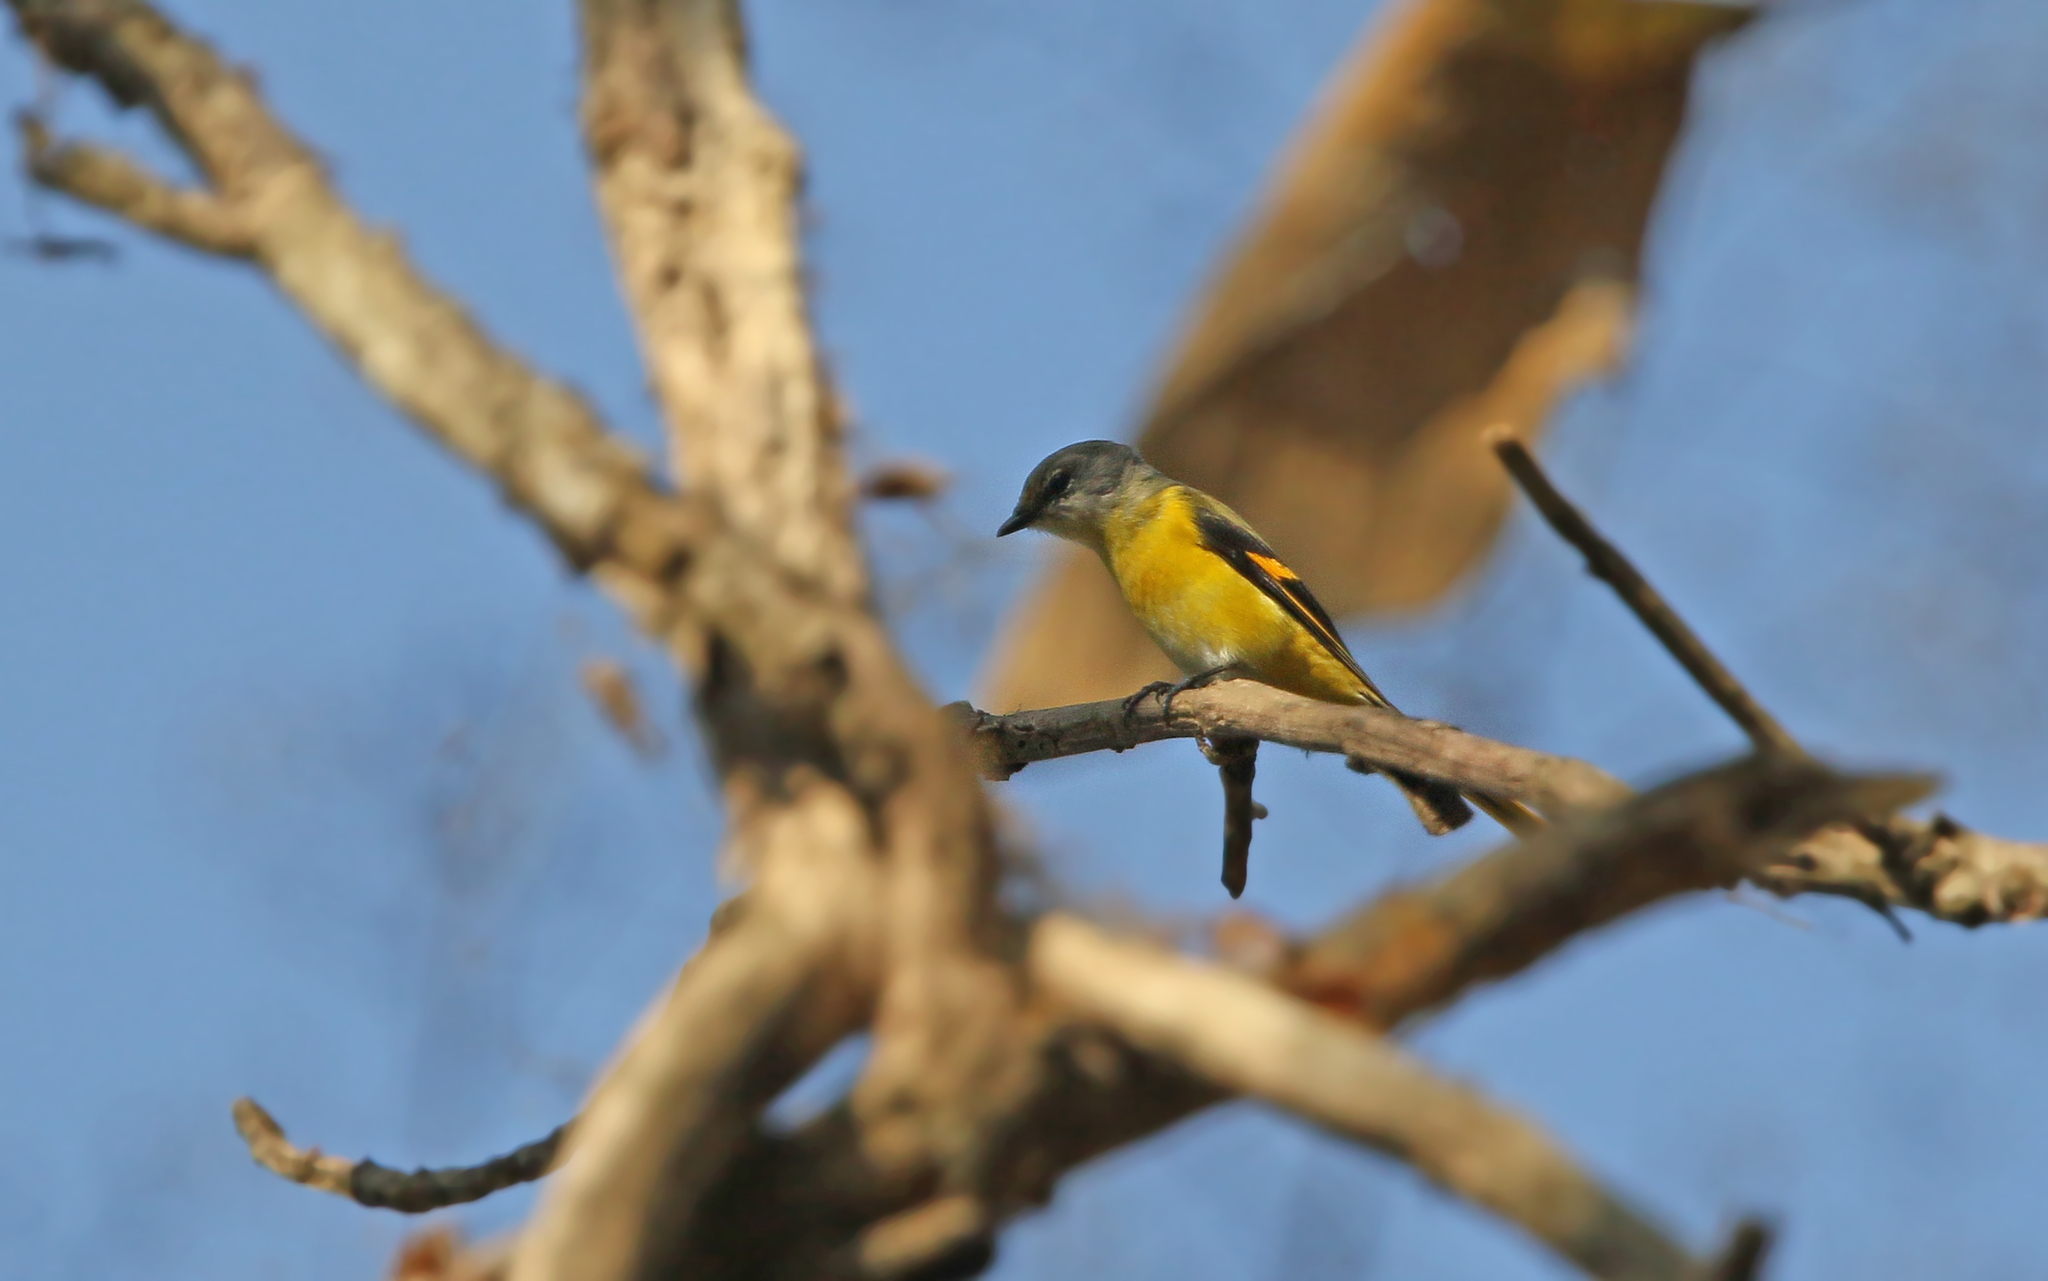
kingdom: Animalia
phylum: Chordata
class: Aves
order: Passeriformes
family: Campephagidae
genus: Pericrocotus
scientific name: Pericrocotus solaris
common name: Grey-chinned minivet
